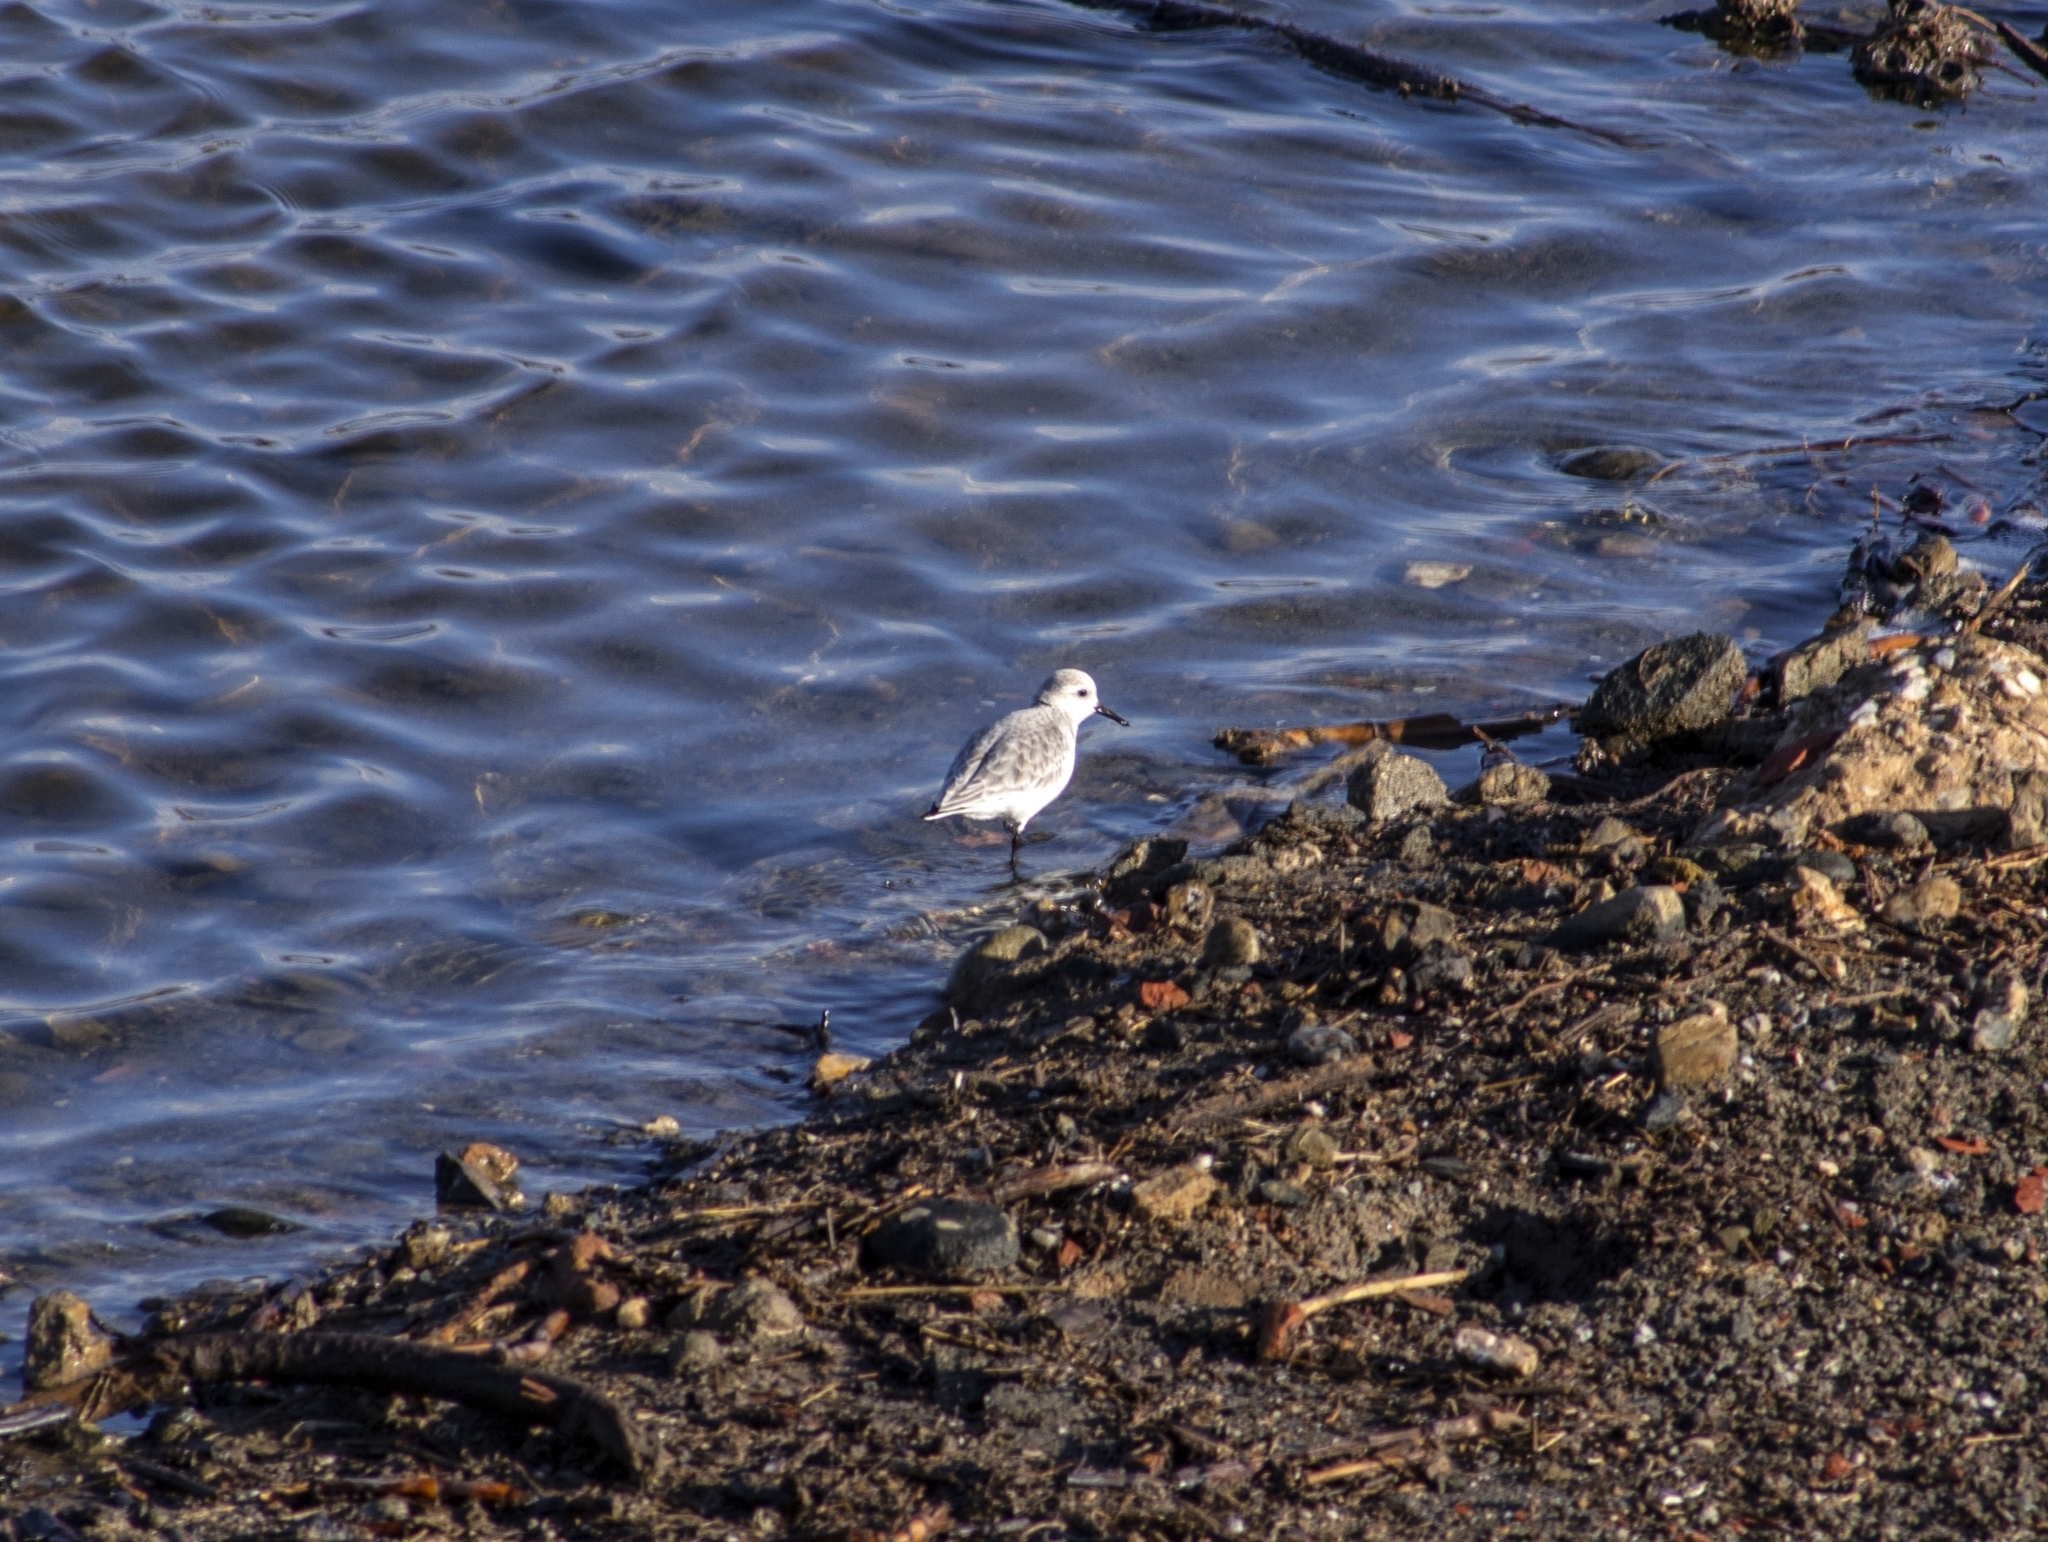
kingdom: Animalia
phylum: Chordata
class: Aves
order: Charadriiformes
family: Scolopacidae
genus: Calidris
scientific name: Calidris alba
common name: Sanderling
